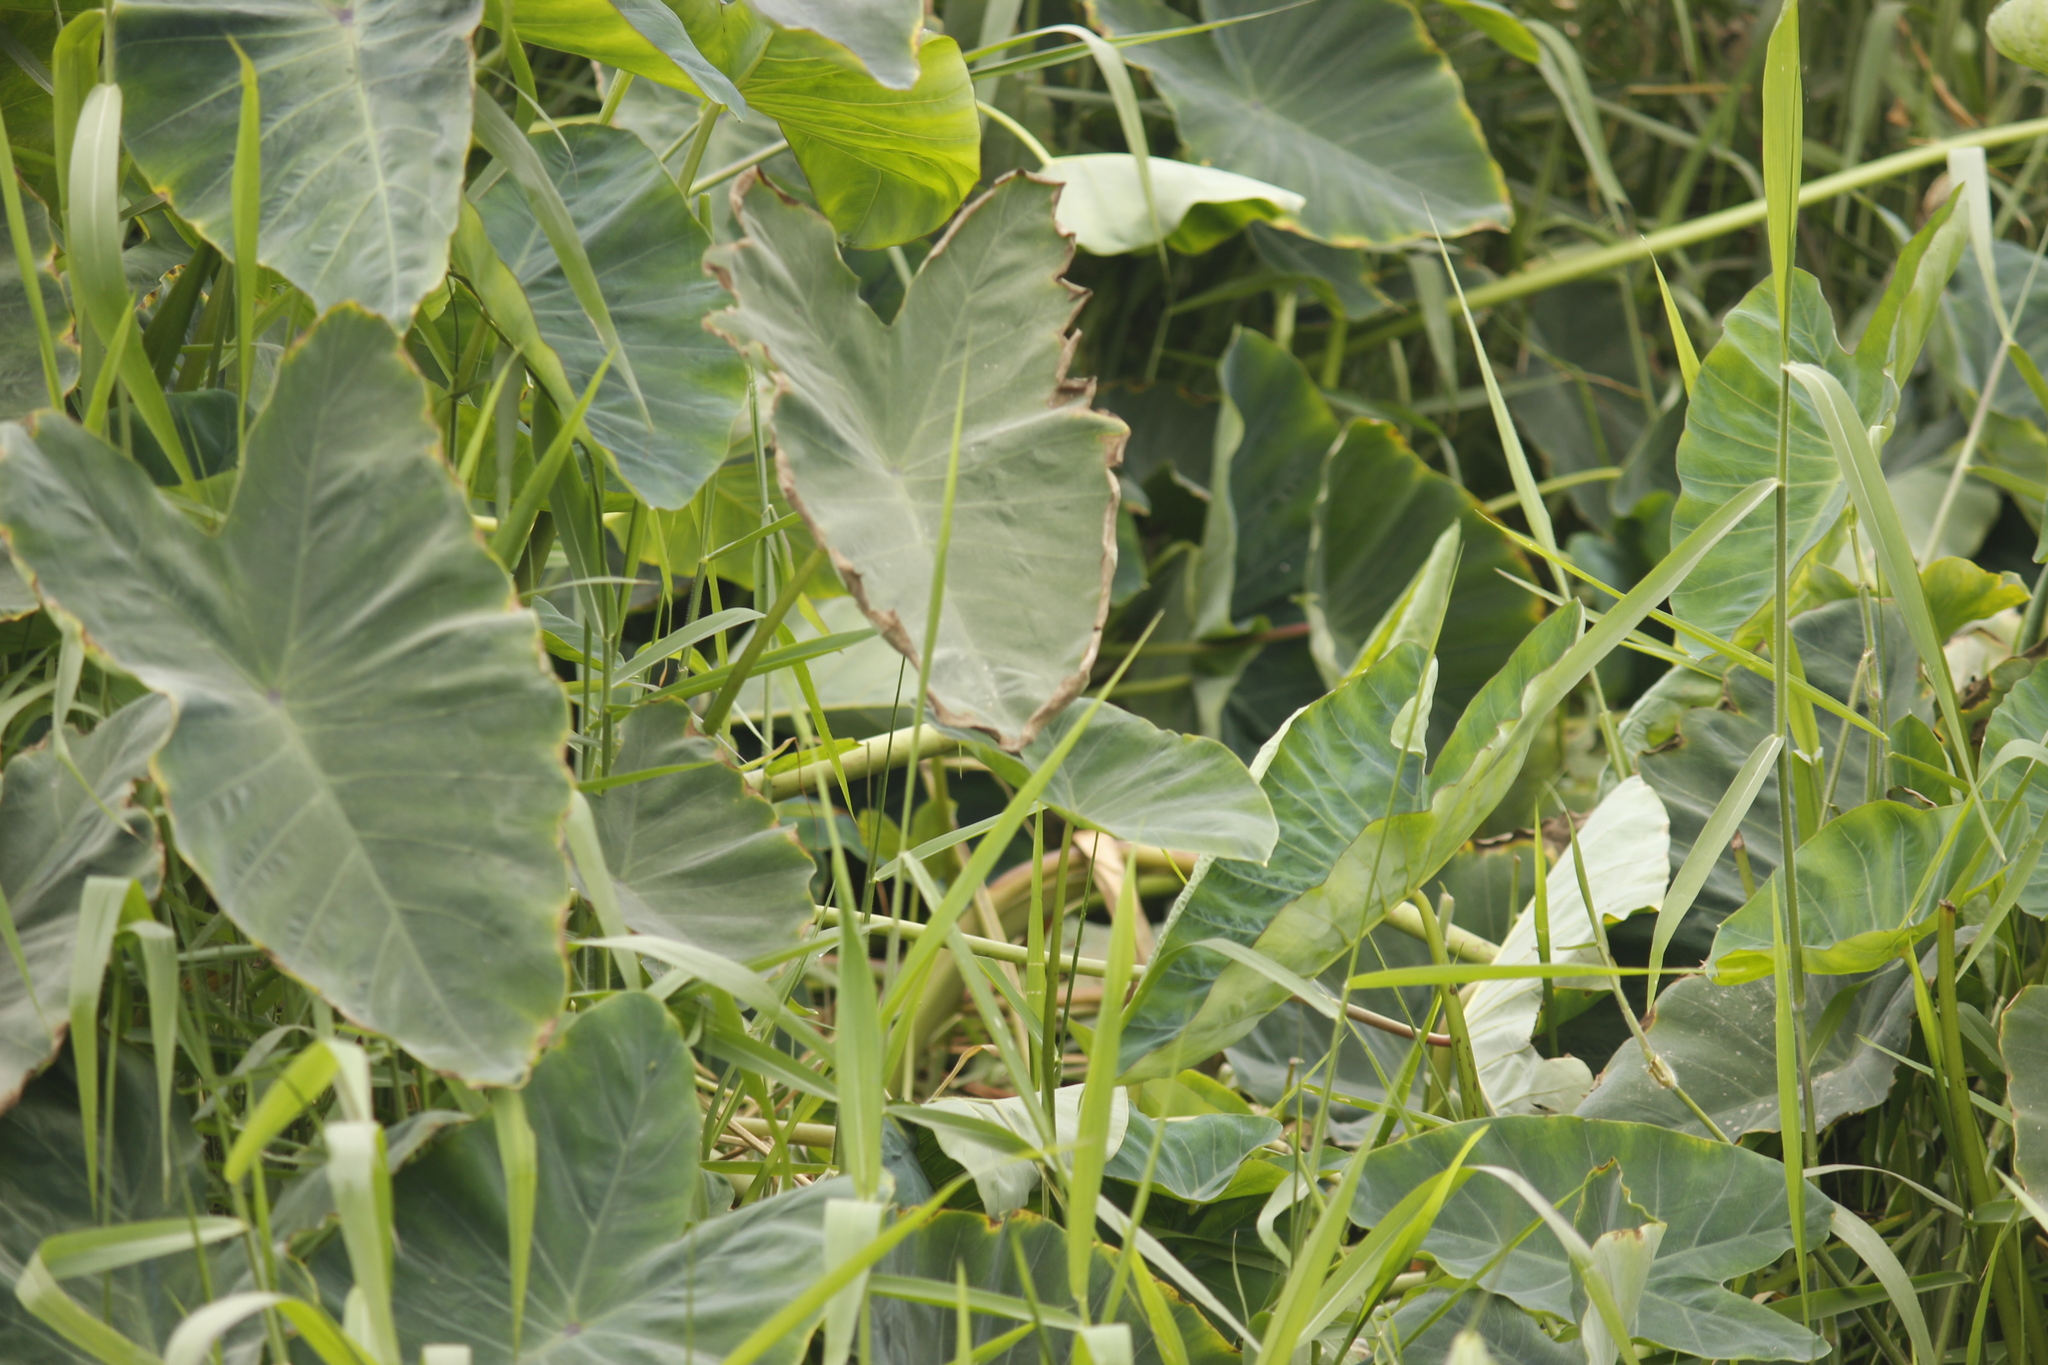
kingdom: Plantae
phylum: Tracheophyta
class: Liliopsida
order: Alismatales
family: Araceae
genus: Colocasia
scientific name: Colocasia esculenta
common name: Taro
